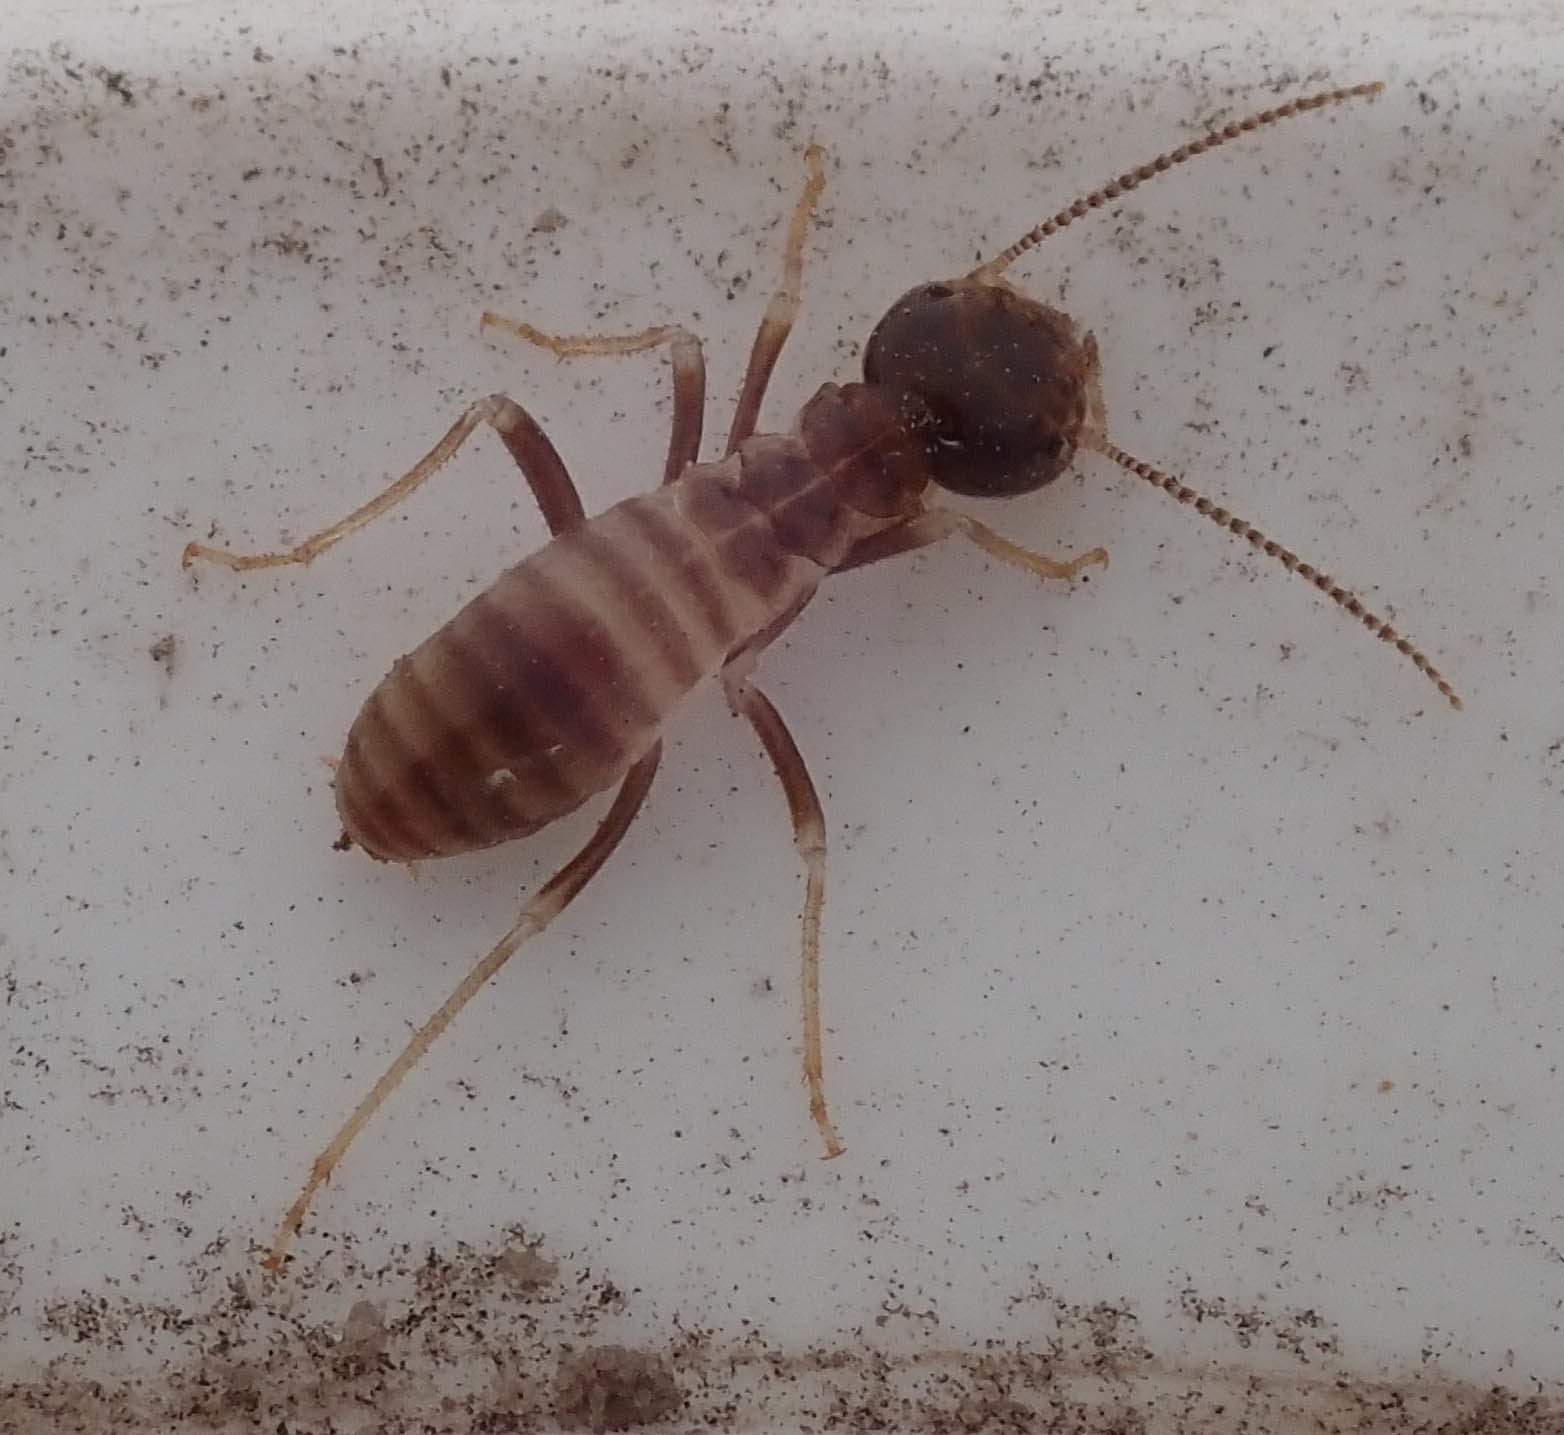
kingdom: Animalia
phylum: Arthropoda
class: Insecta
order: Blattodea
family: Hodotermitidae
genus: Hodotermes
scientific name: Hodotermes mossambicus
